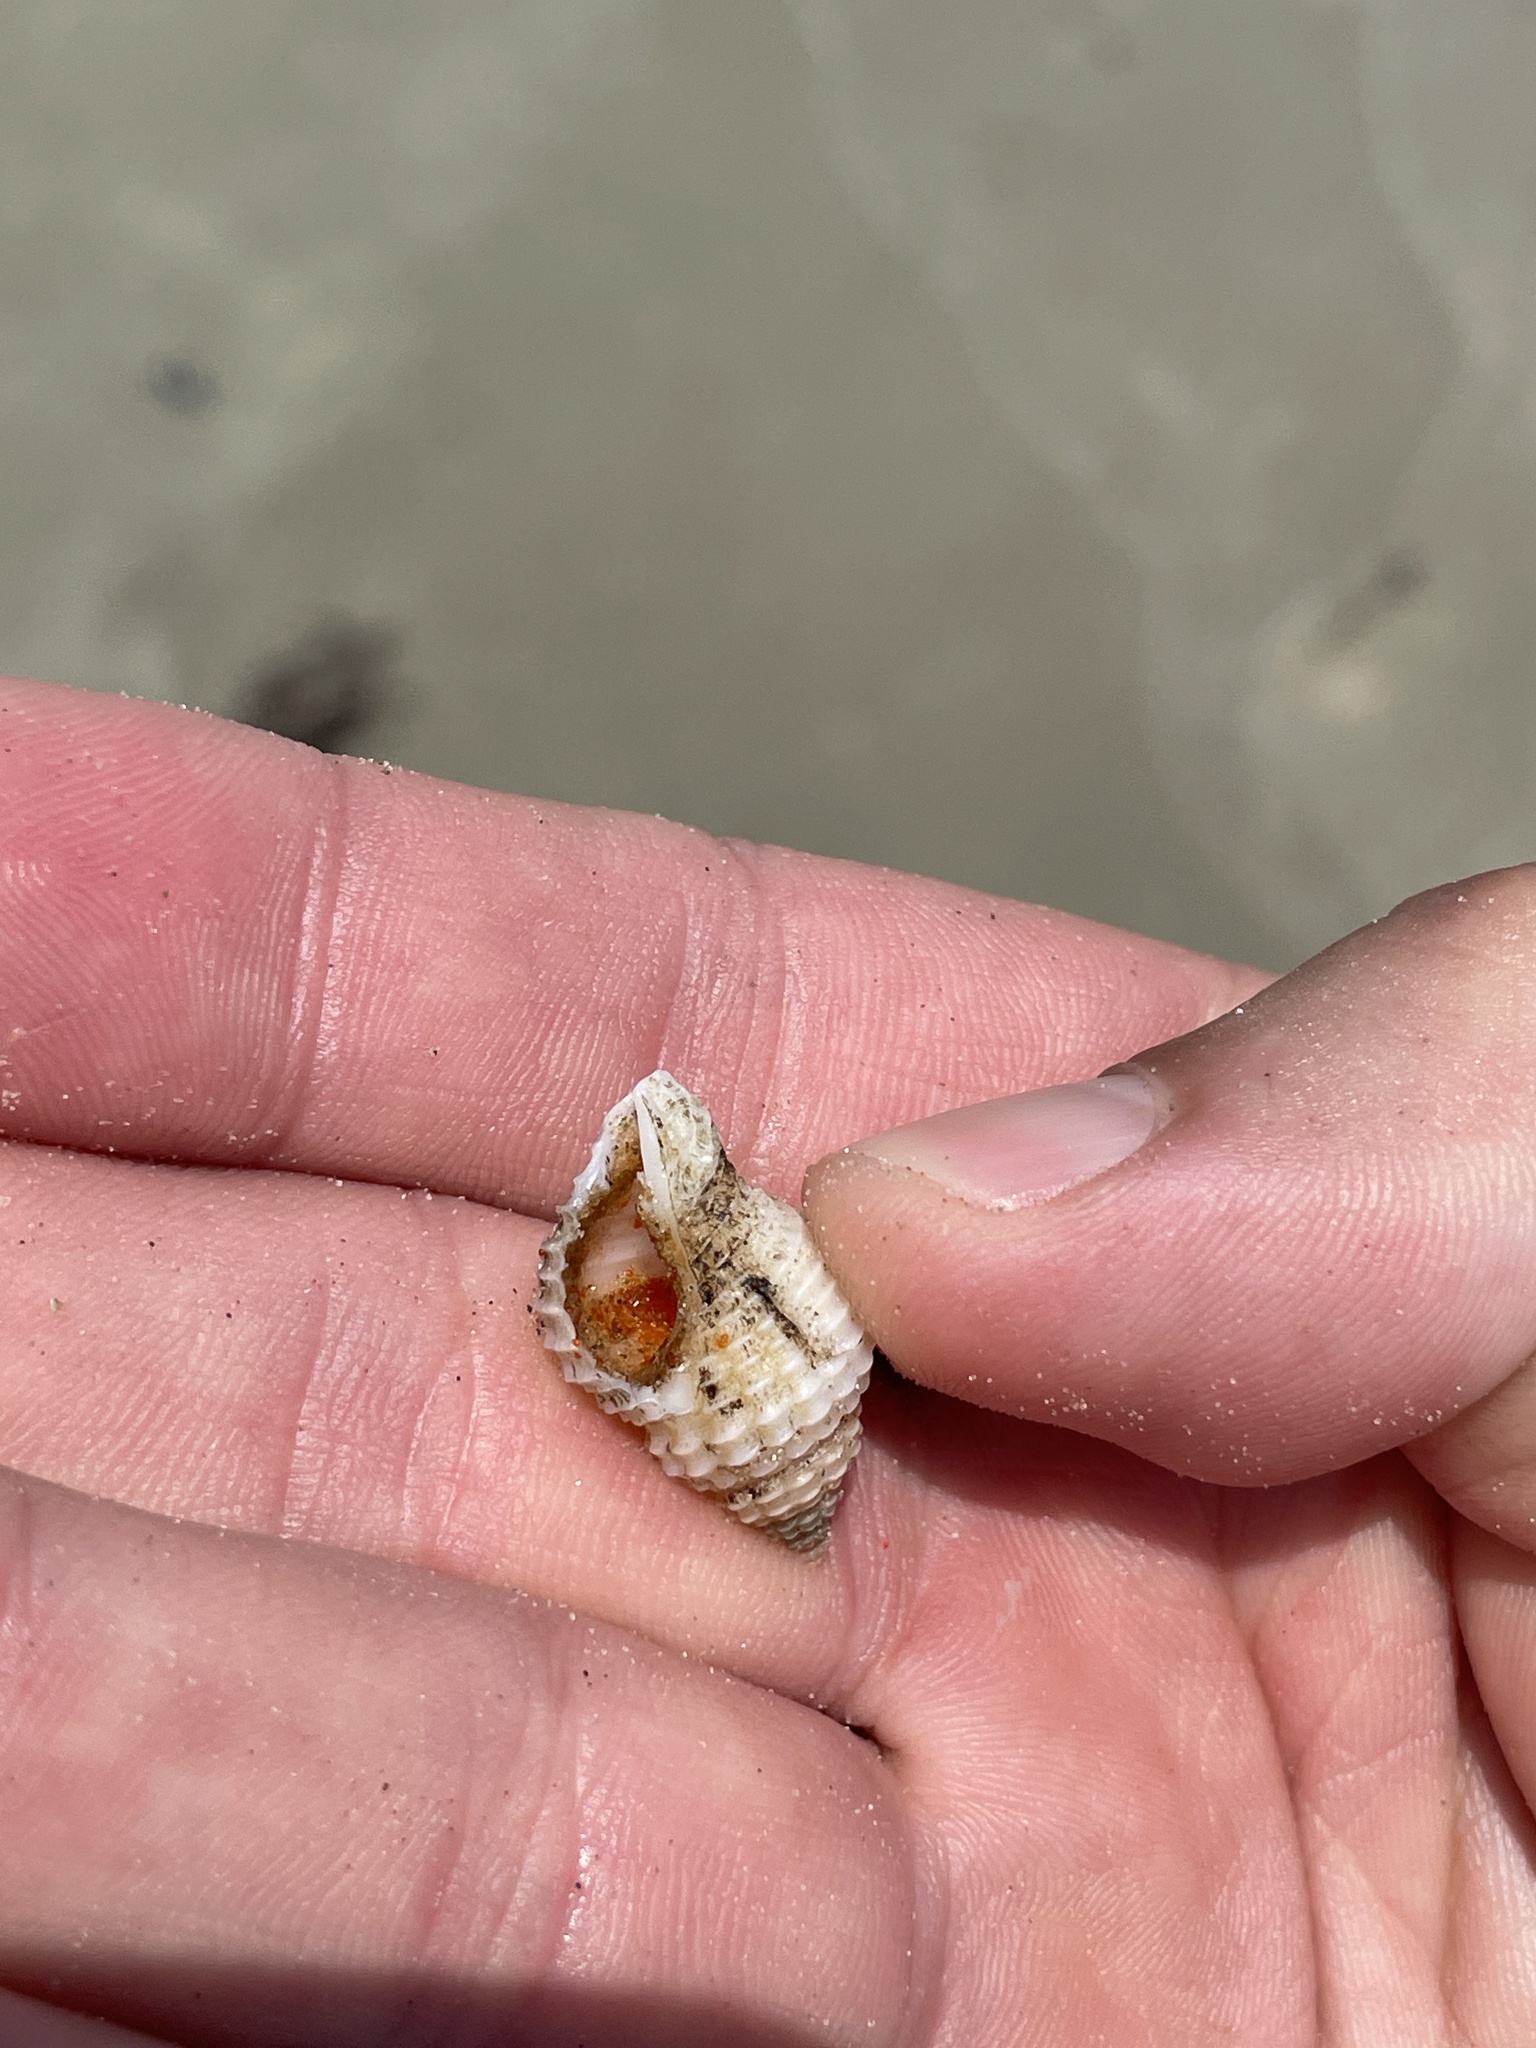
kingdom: Animalia
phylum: Mollusca
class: Gastropoda
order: Neogastropoda
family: Pisaniidae
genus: Solenosteira
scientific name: Solenosteira cancellaria
